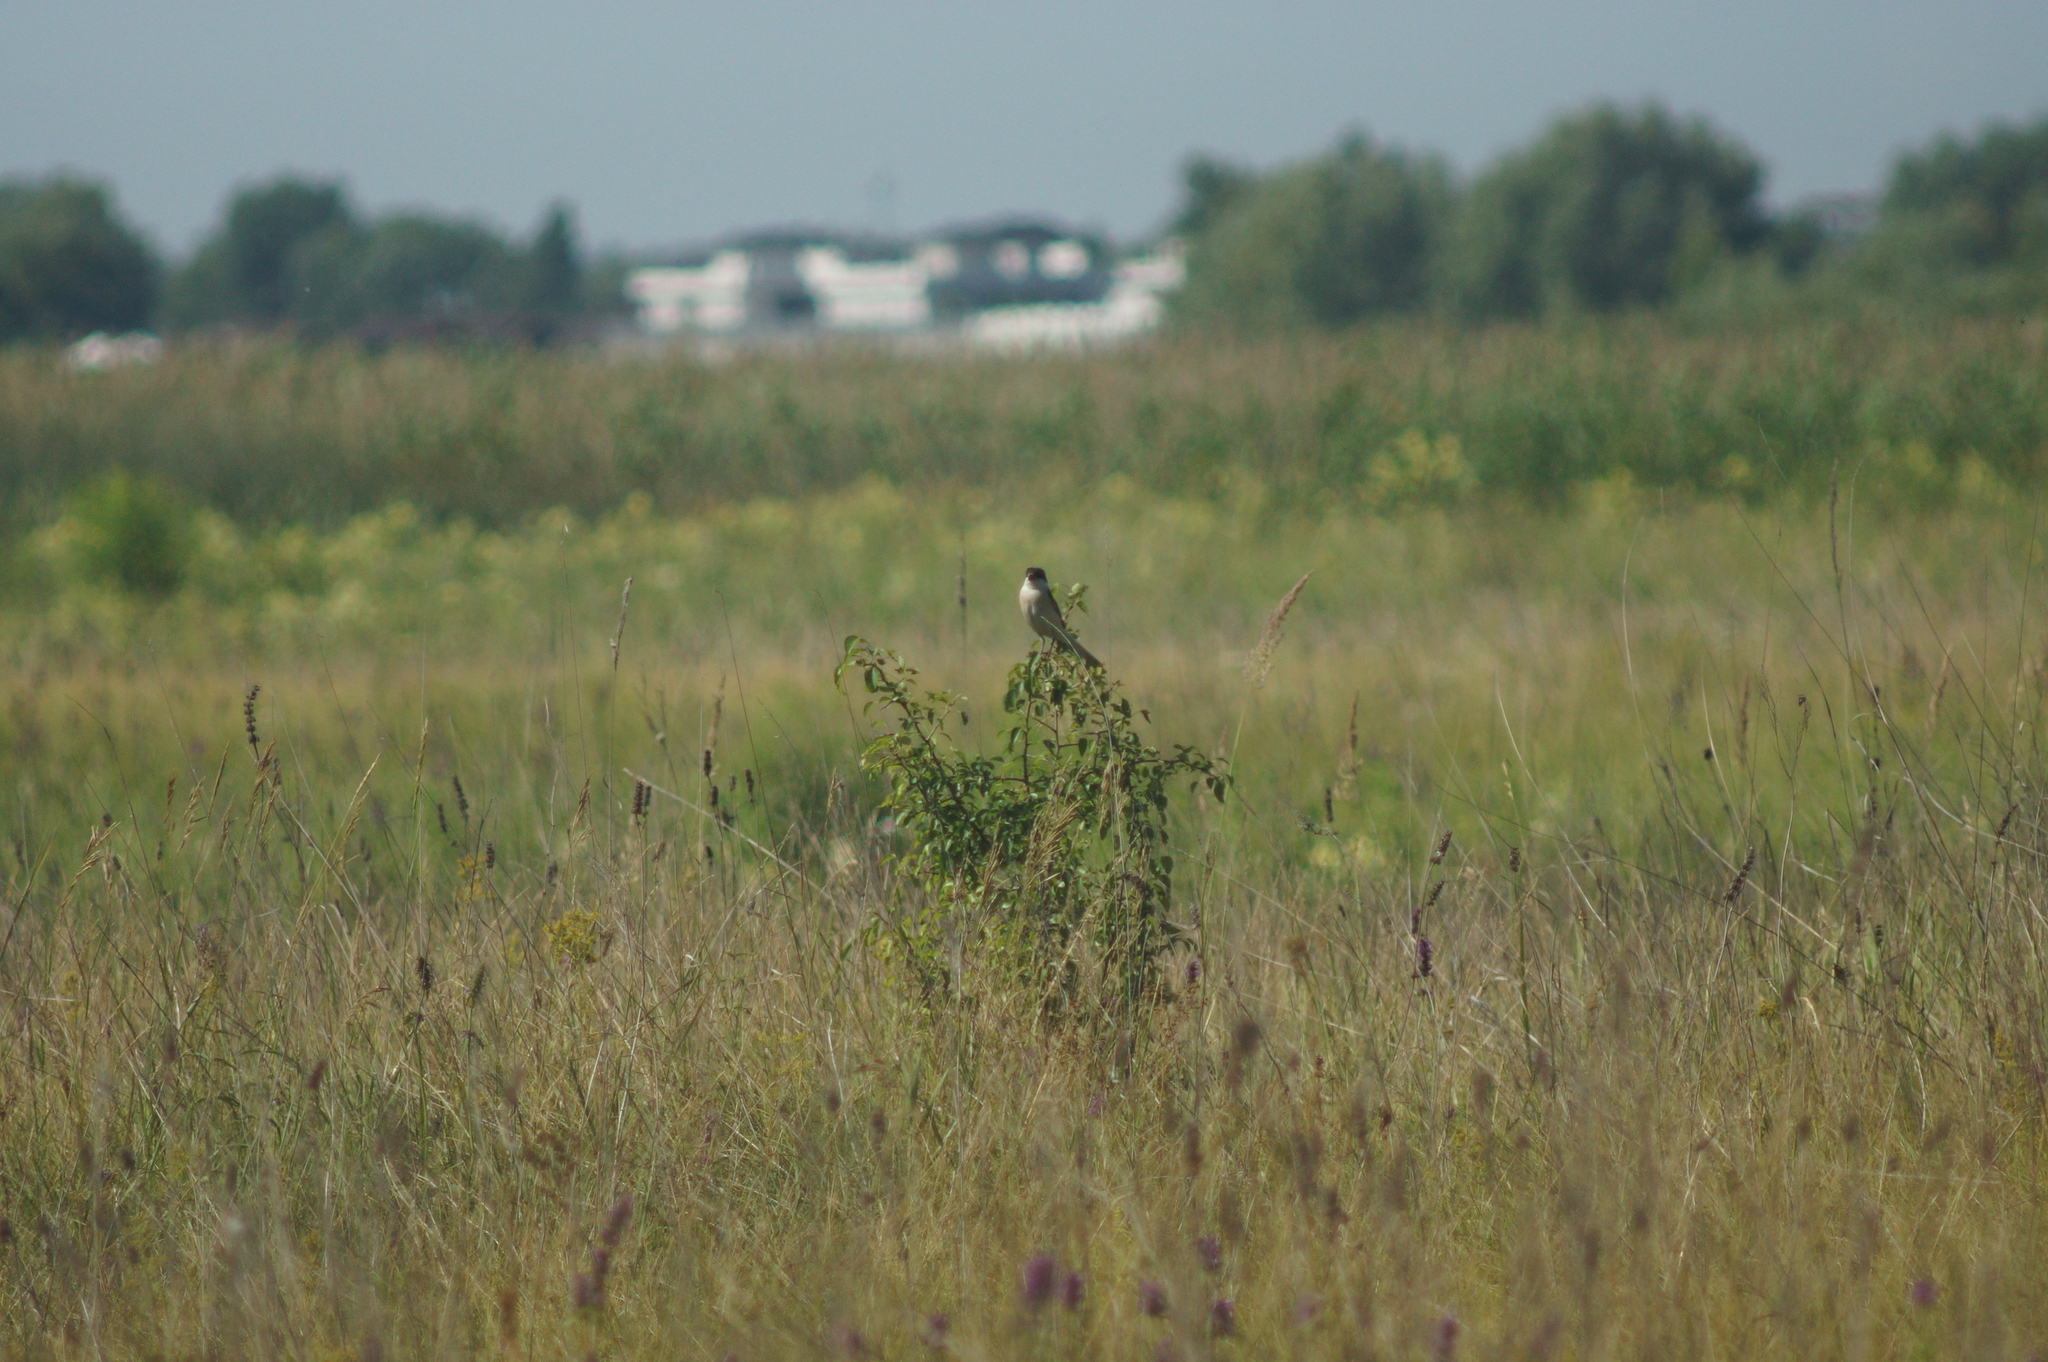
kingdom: Animalia
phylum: Chordata
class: Aves
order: Passeriformes
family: Laniidae
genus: Lanius
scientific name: Lanius minor
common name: Lesser grey shrike
